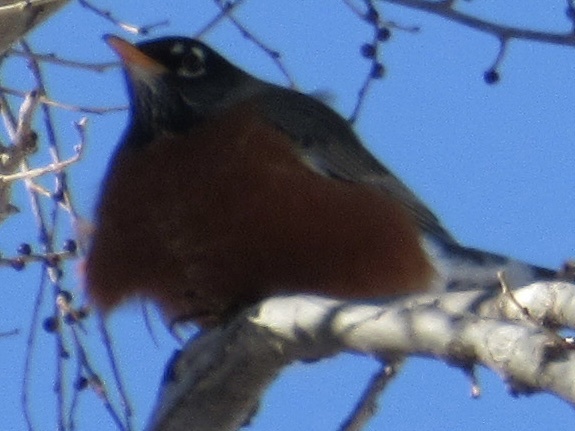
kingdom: Animalia
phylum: Chordata
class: Aves
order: Passeriformes
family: Turdidae
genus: Turdus
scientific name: Turdus migratorius
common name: American robin
